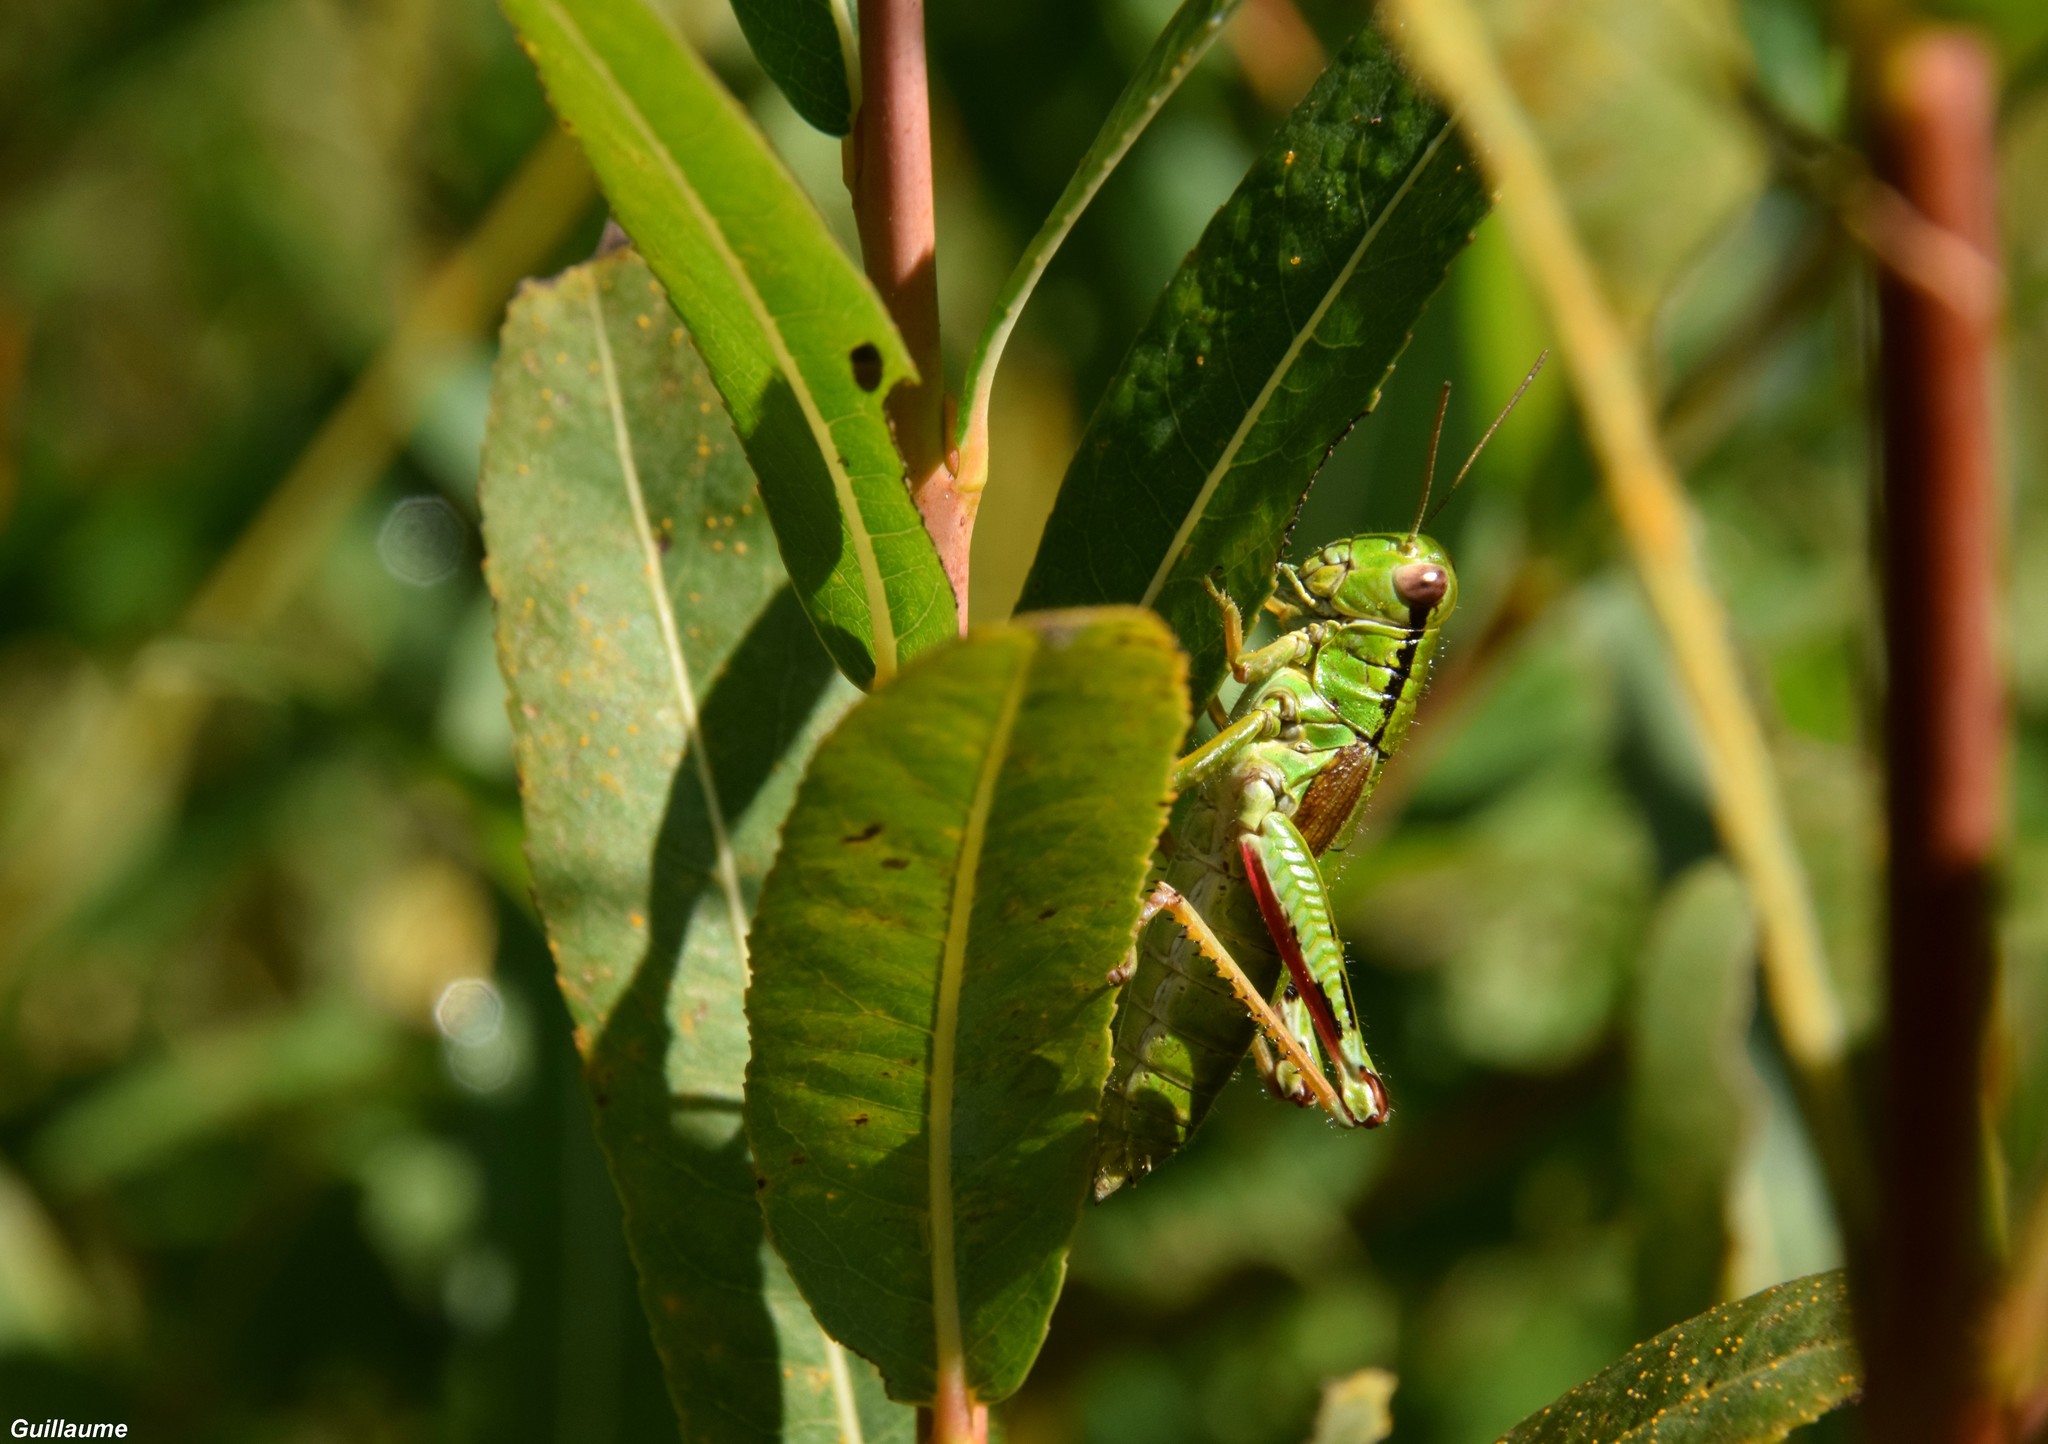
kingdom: Animalia
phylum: Arthropoda
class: Insecta
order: Orthoptera
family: Acrididae
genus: Miramella
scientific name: Miramella alpina
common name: Green mountain grasshopper
